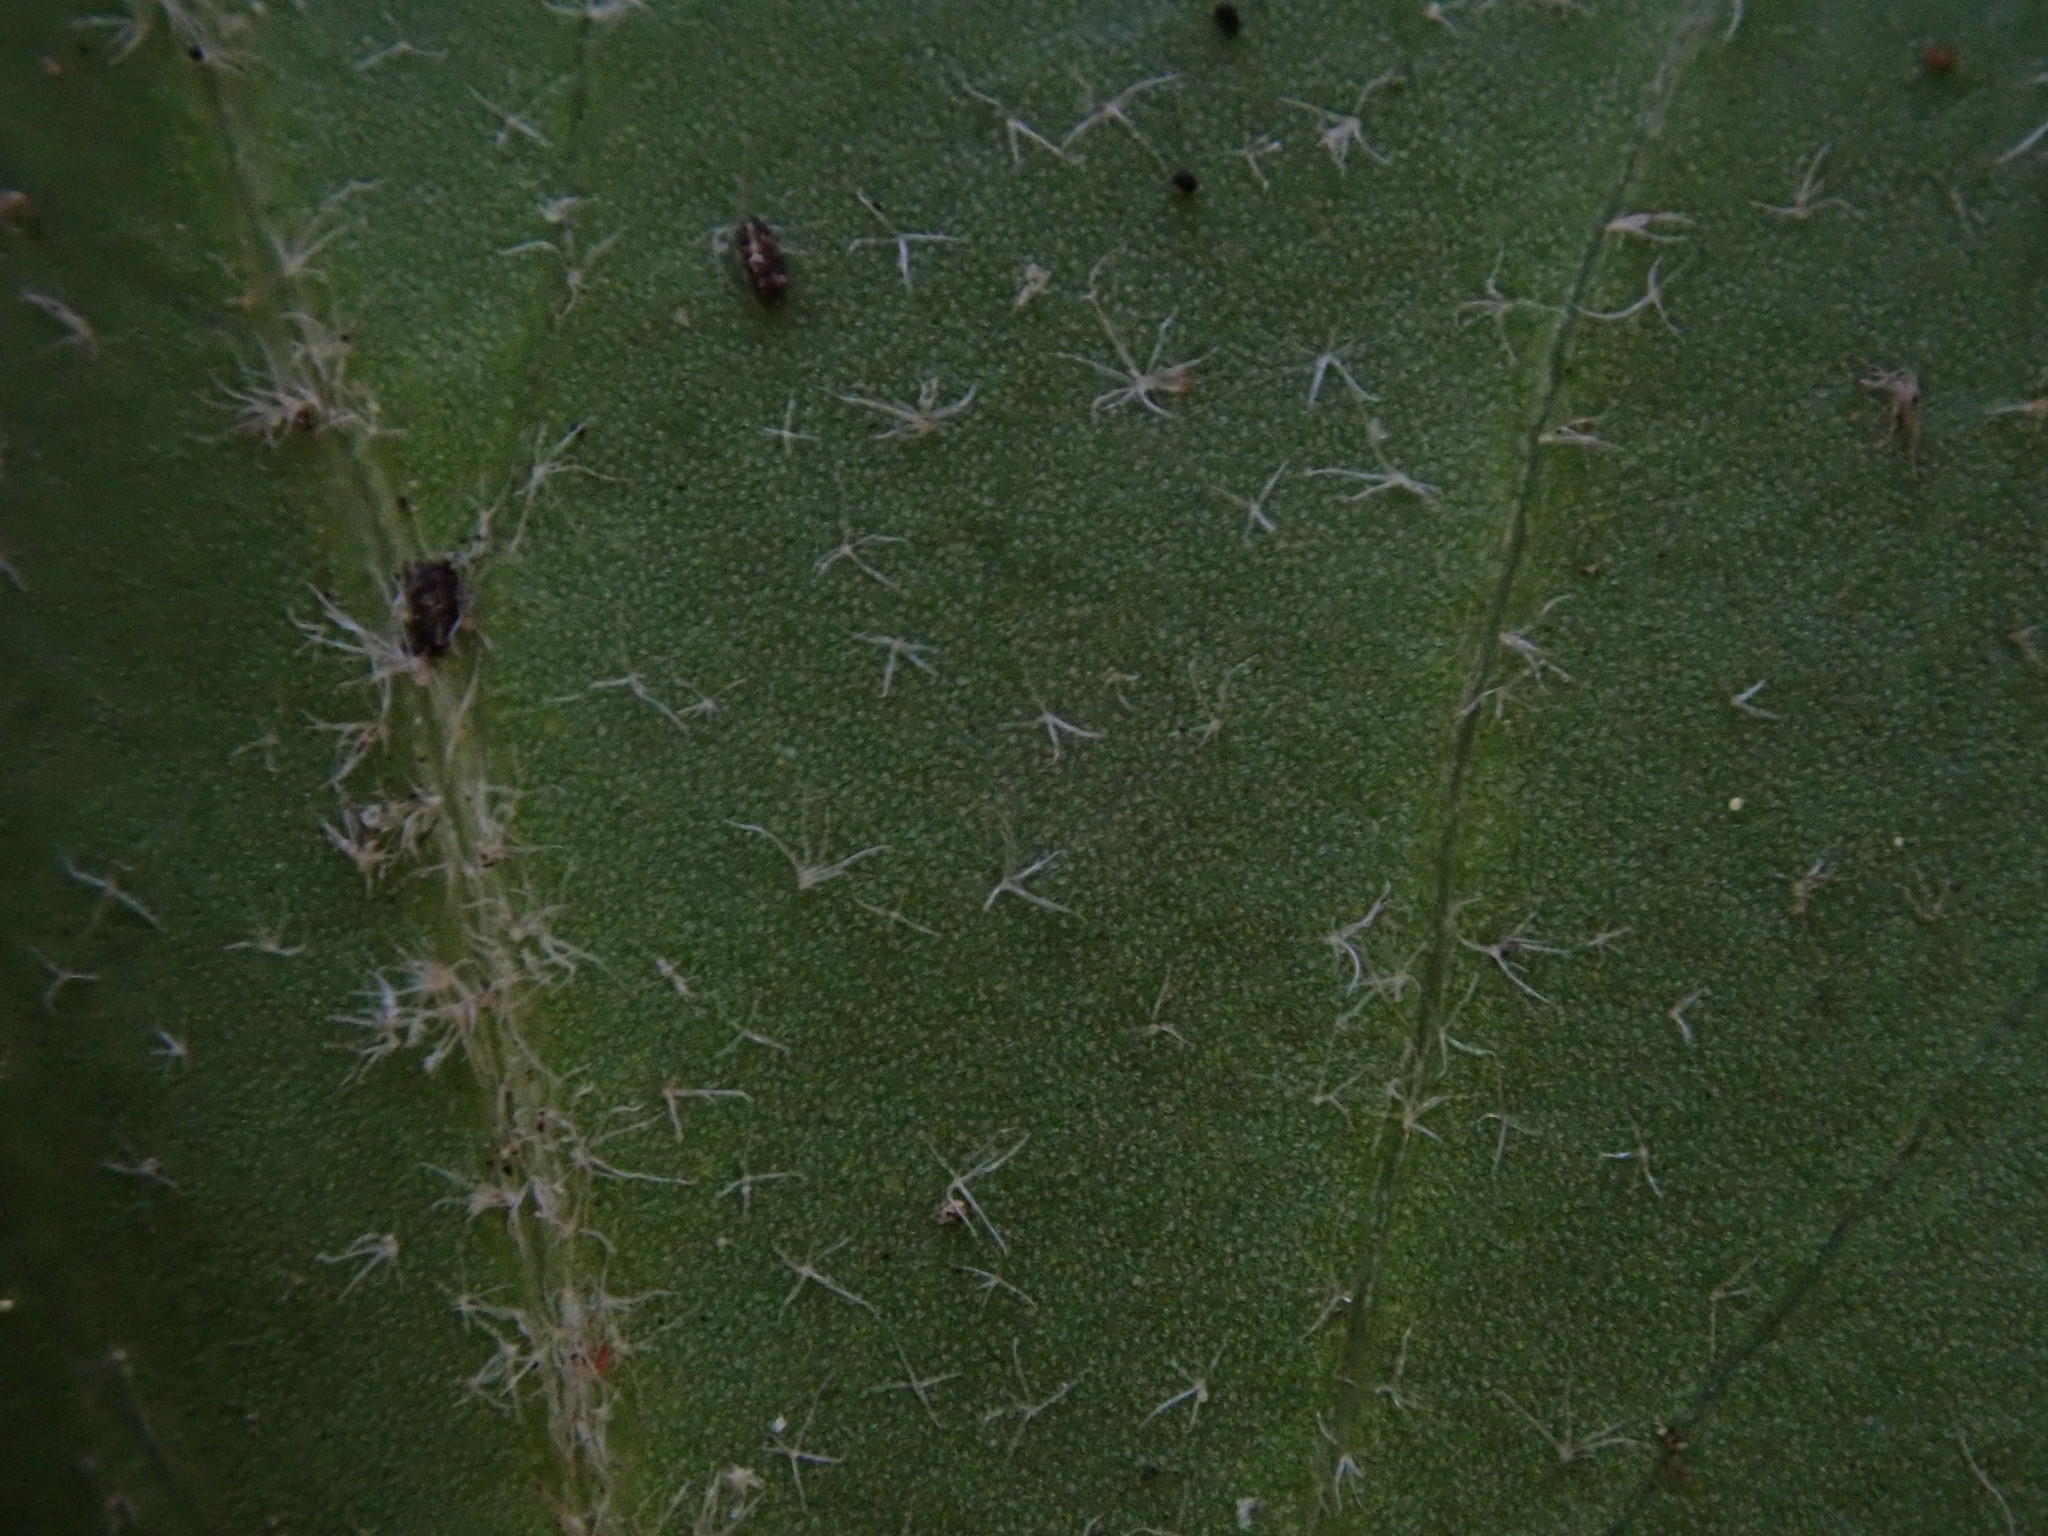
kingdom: Plantae
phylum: Tracheophyta
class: Magnoliopsida
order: Apiales
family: Araliaceae
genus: Hedera
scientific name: Hedera helix
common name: Ivy
